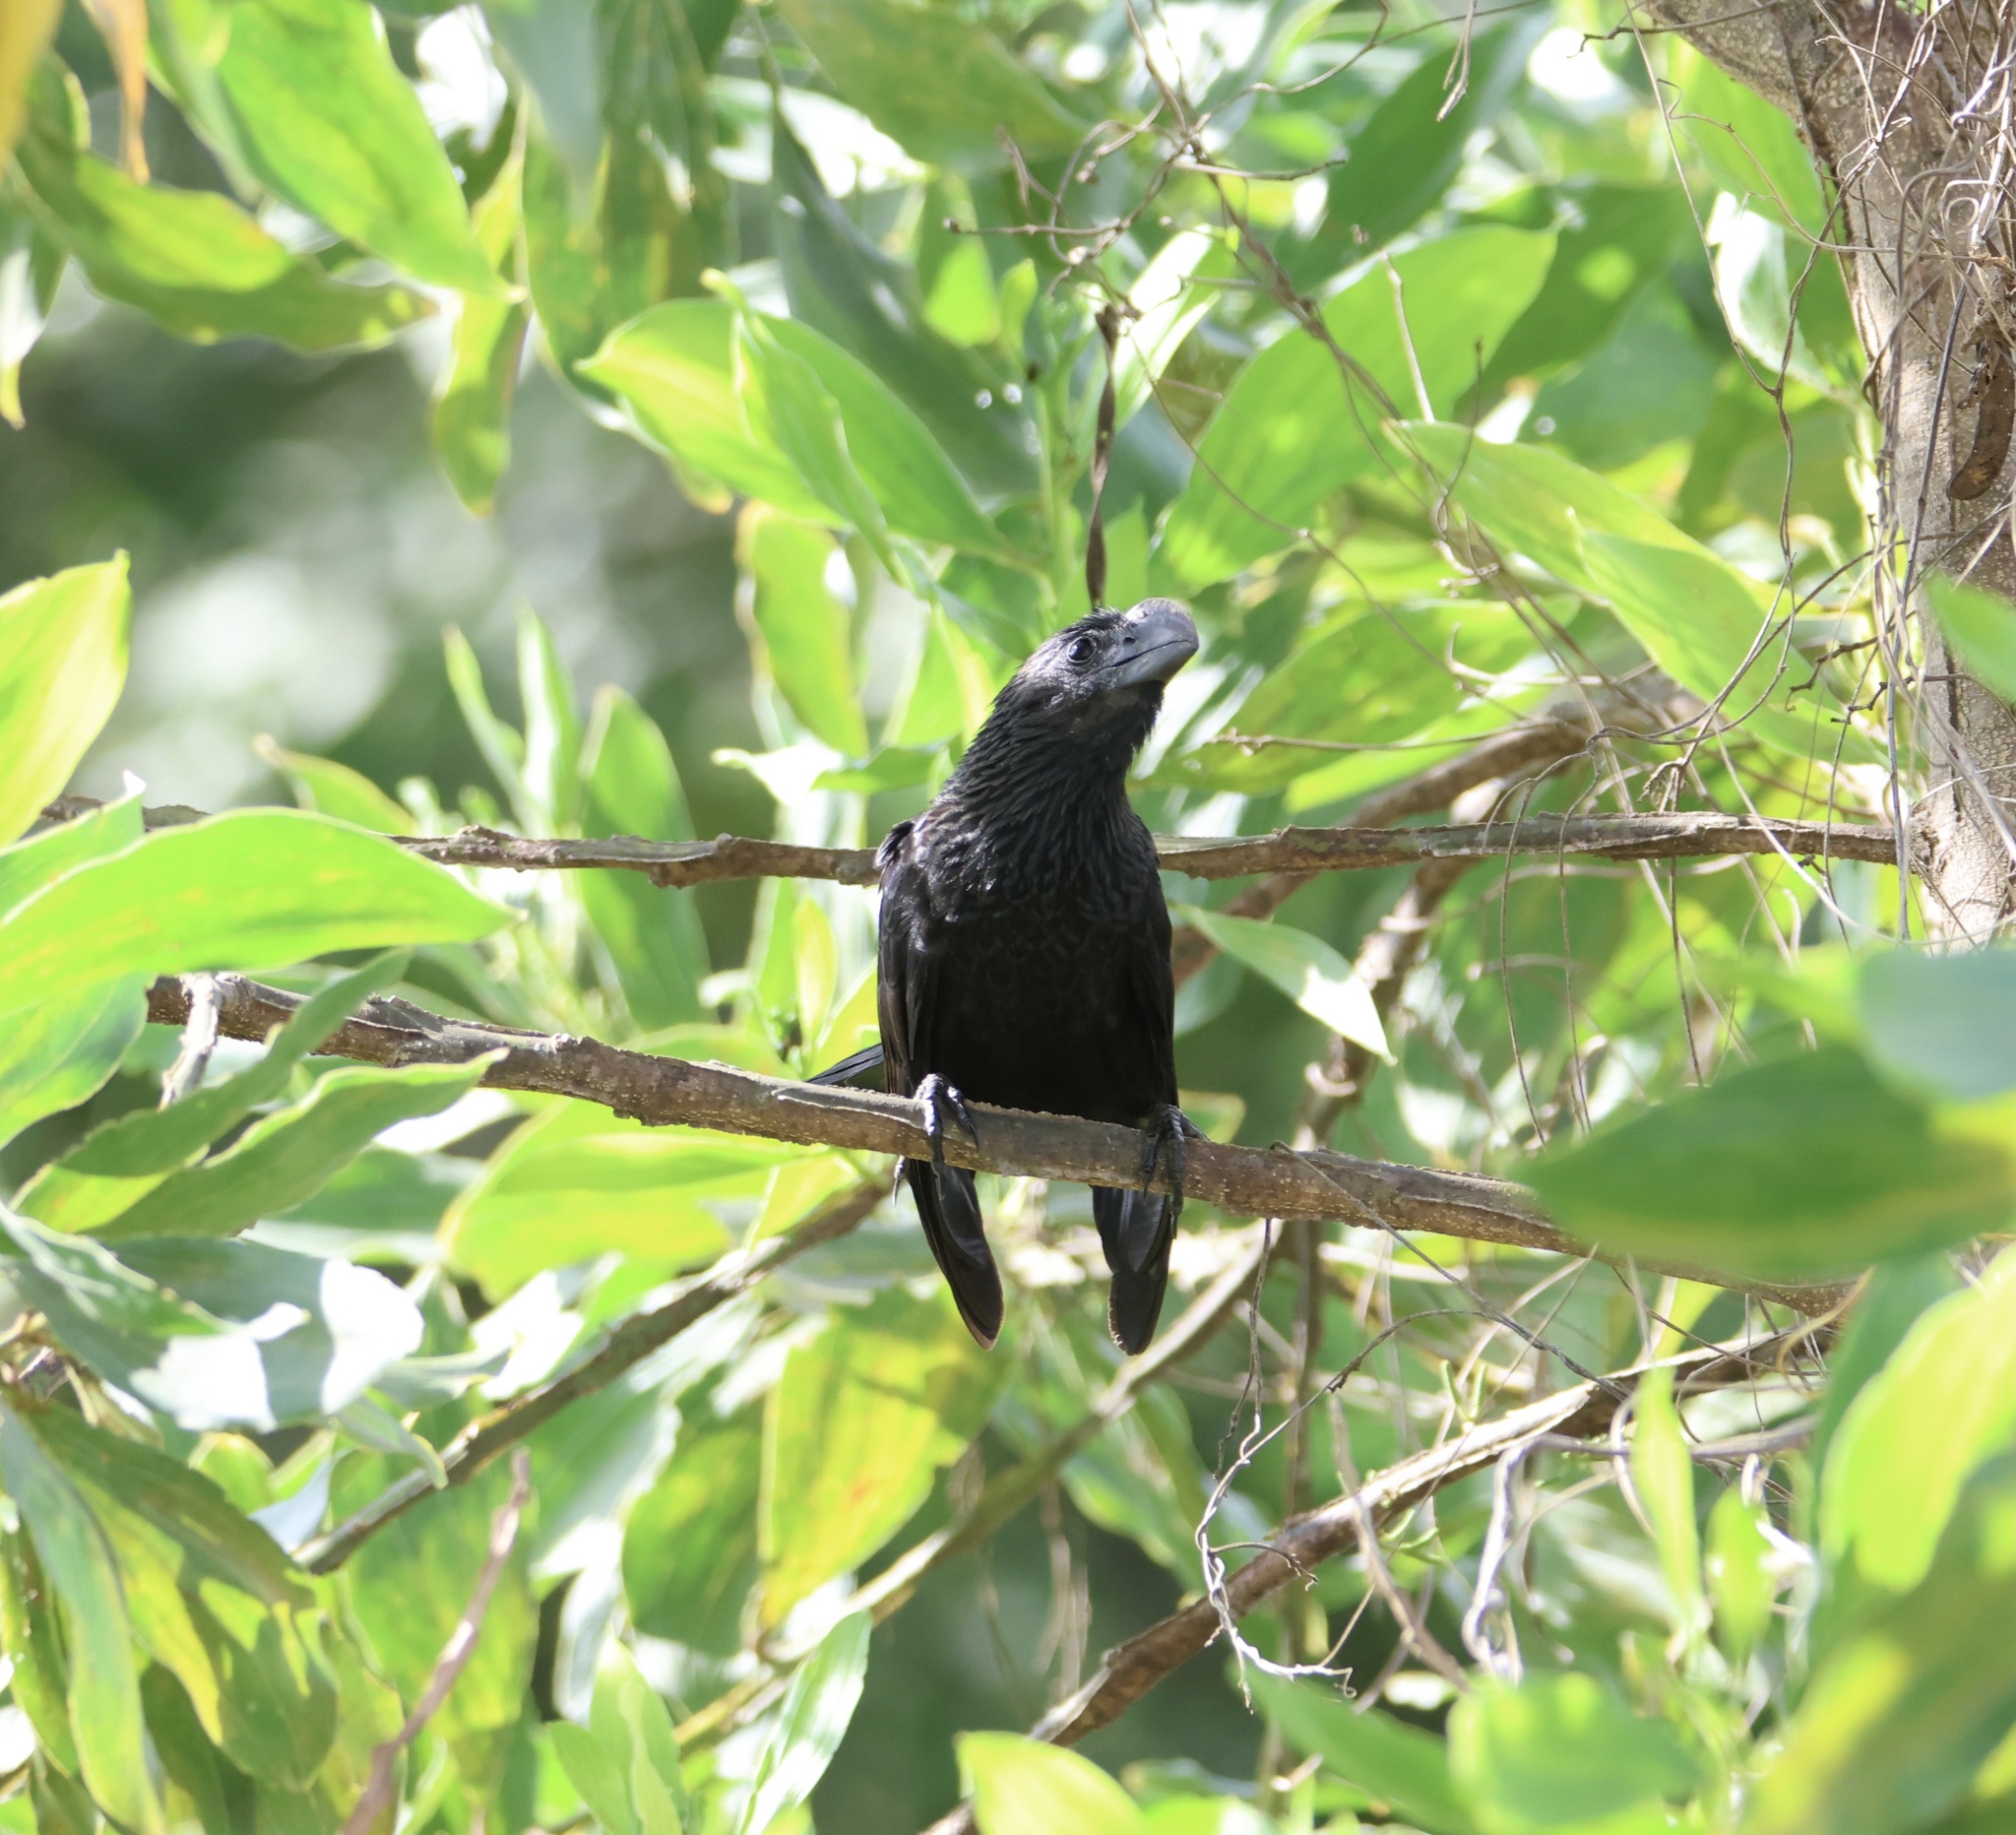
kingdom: Animalia
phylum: Chordata
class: Aves
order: Cuculiformes
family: Cuculidae
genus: Crotophaga
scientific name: Crotophaga ani
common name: Smooth-billed ani
